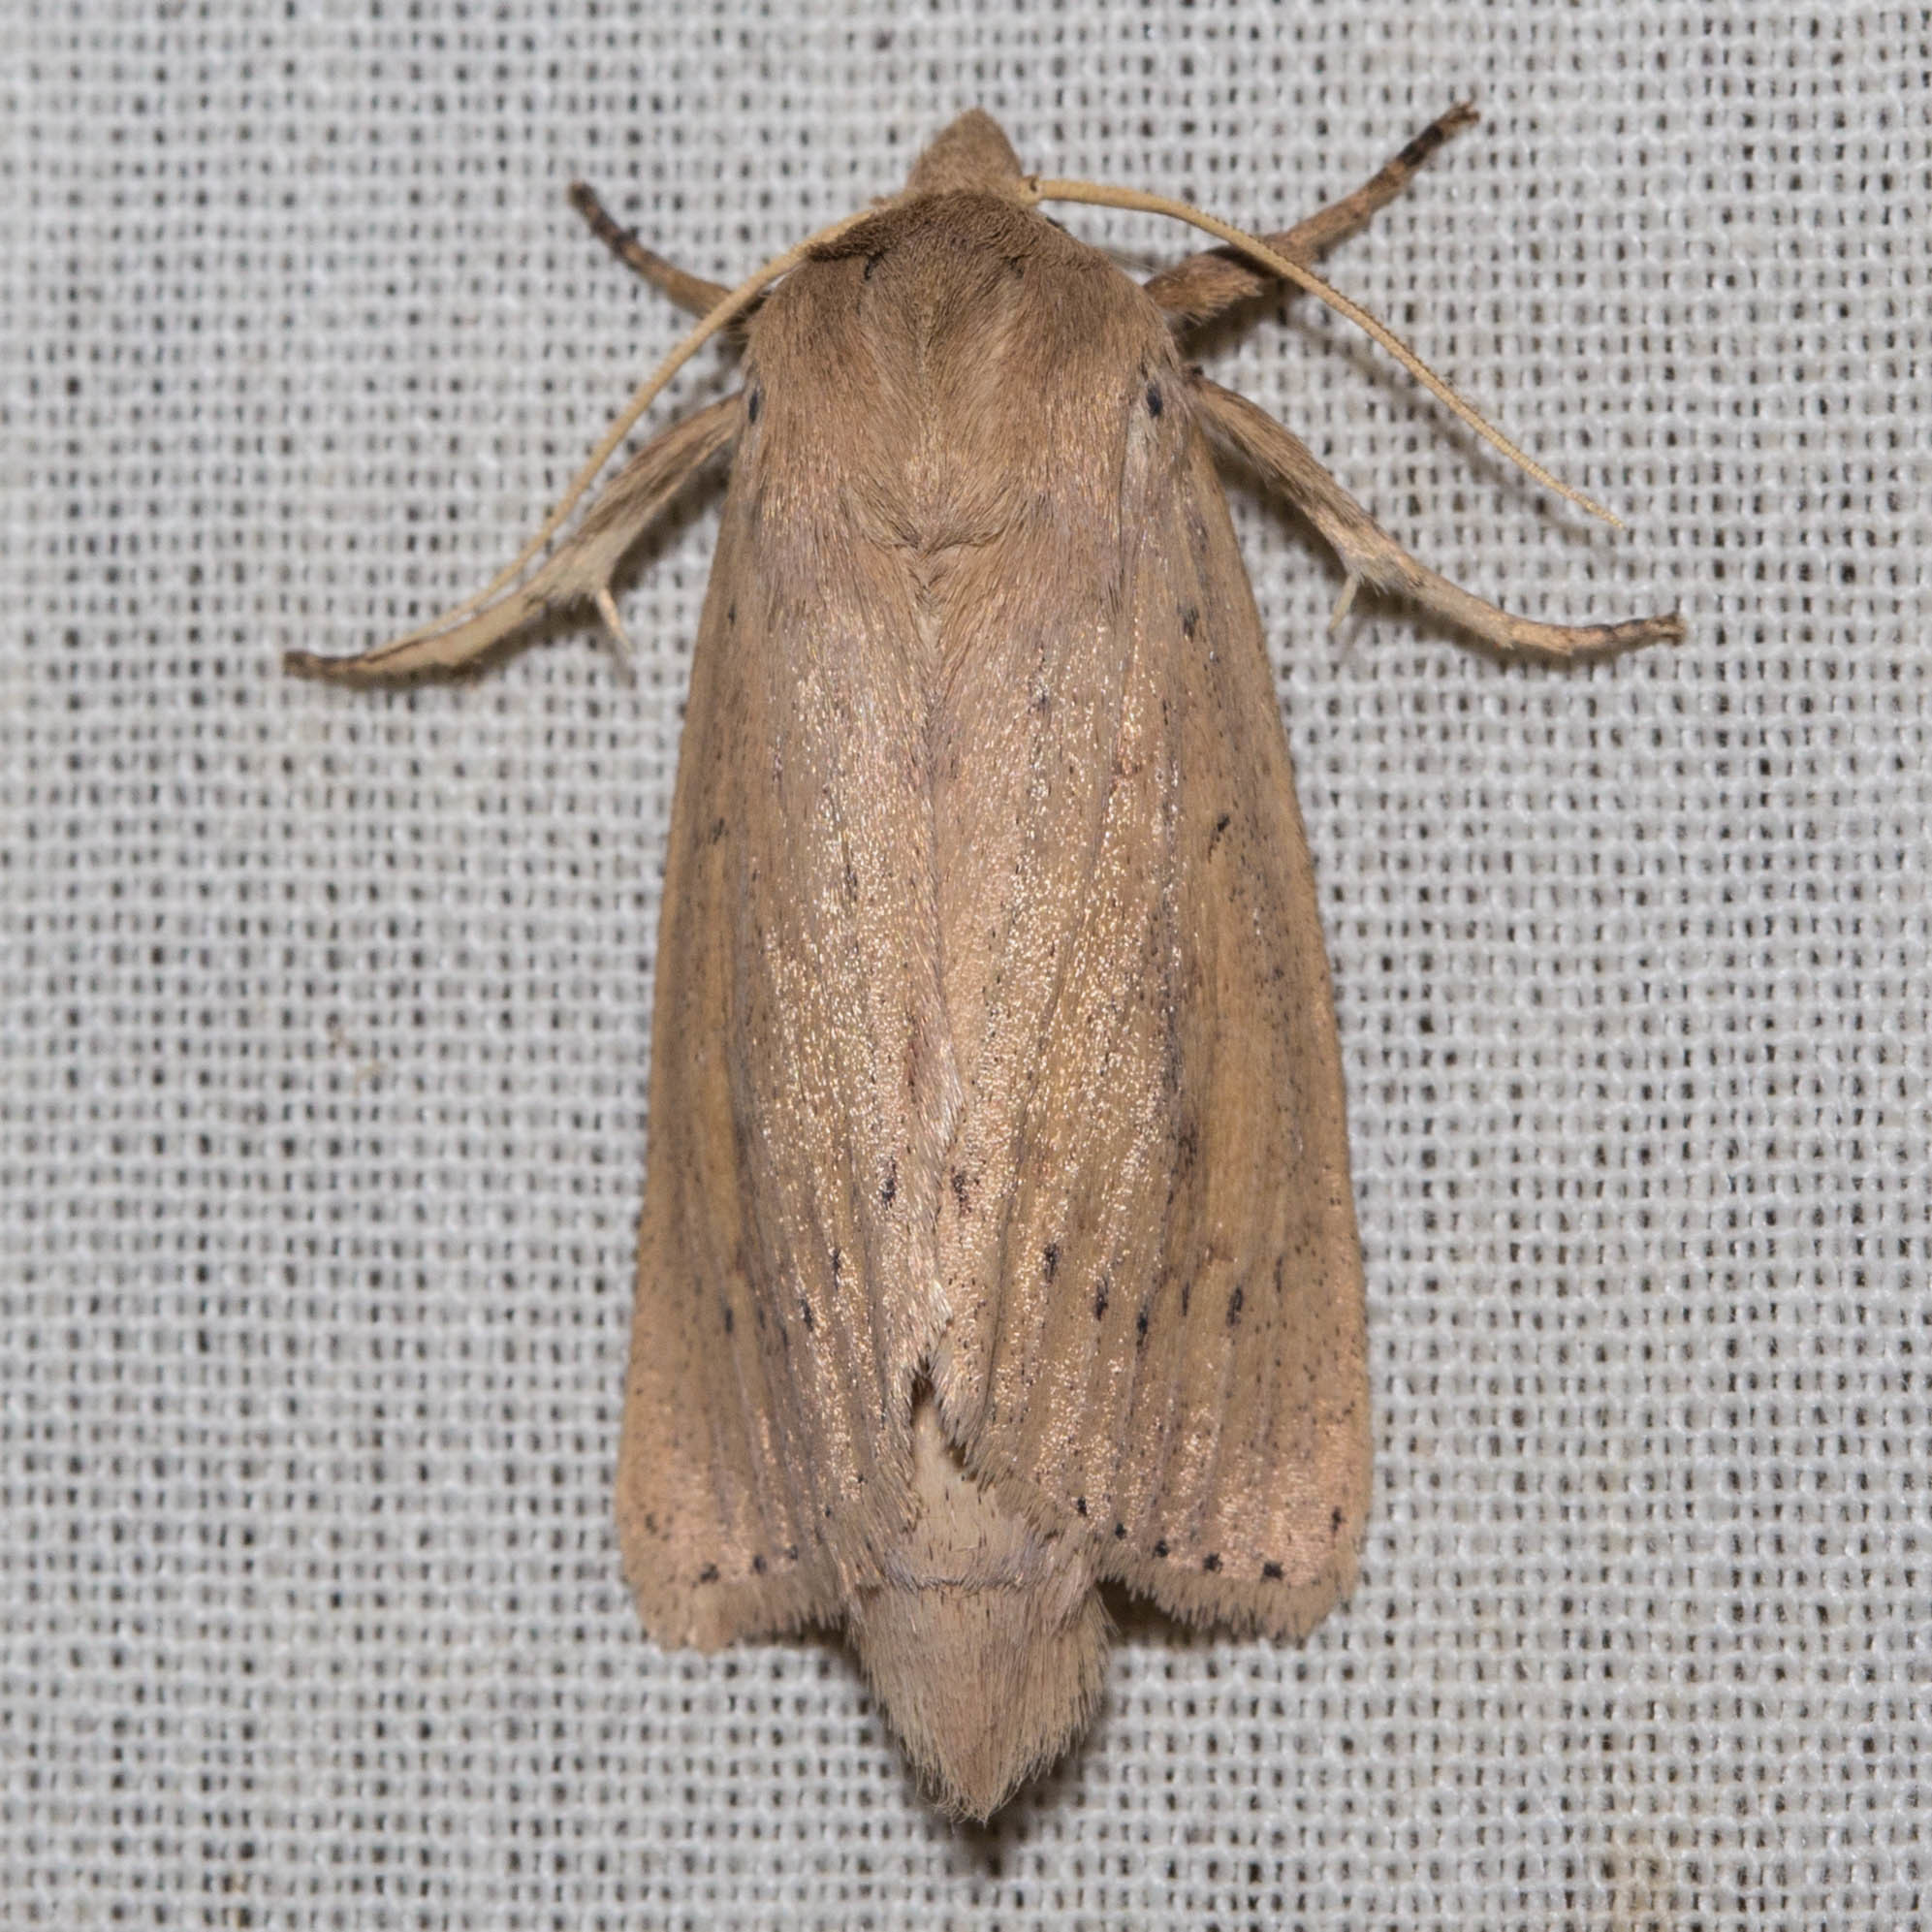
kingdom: Animalia
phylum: Arthropoda
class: Insecta
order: Lepidoptera
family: Noctuidae
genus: Globia
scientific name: Globia oblonga
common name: Oblong sedge borer moth
